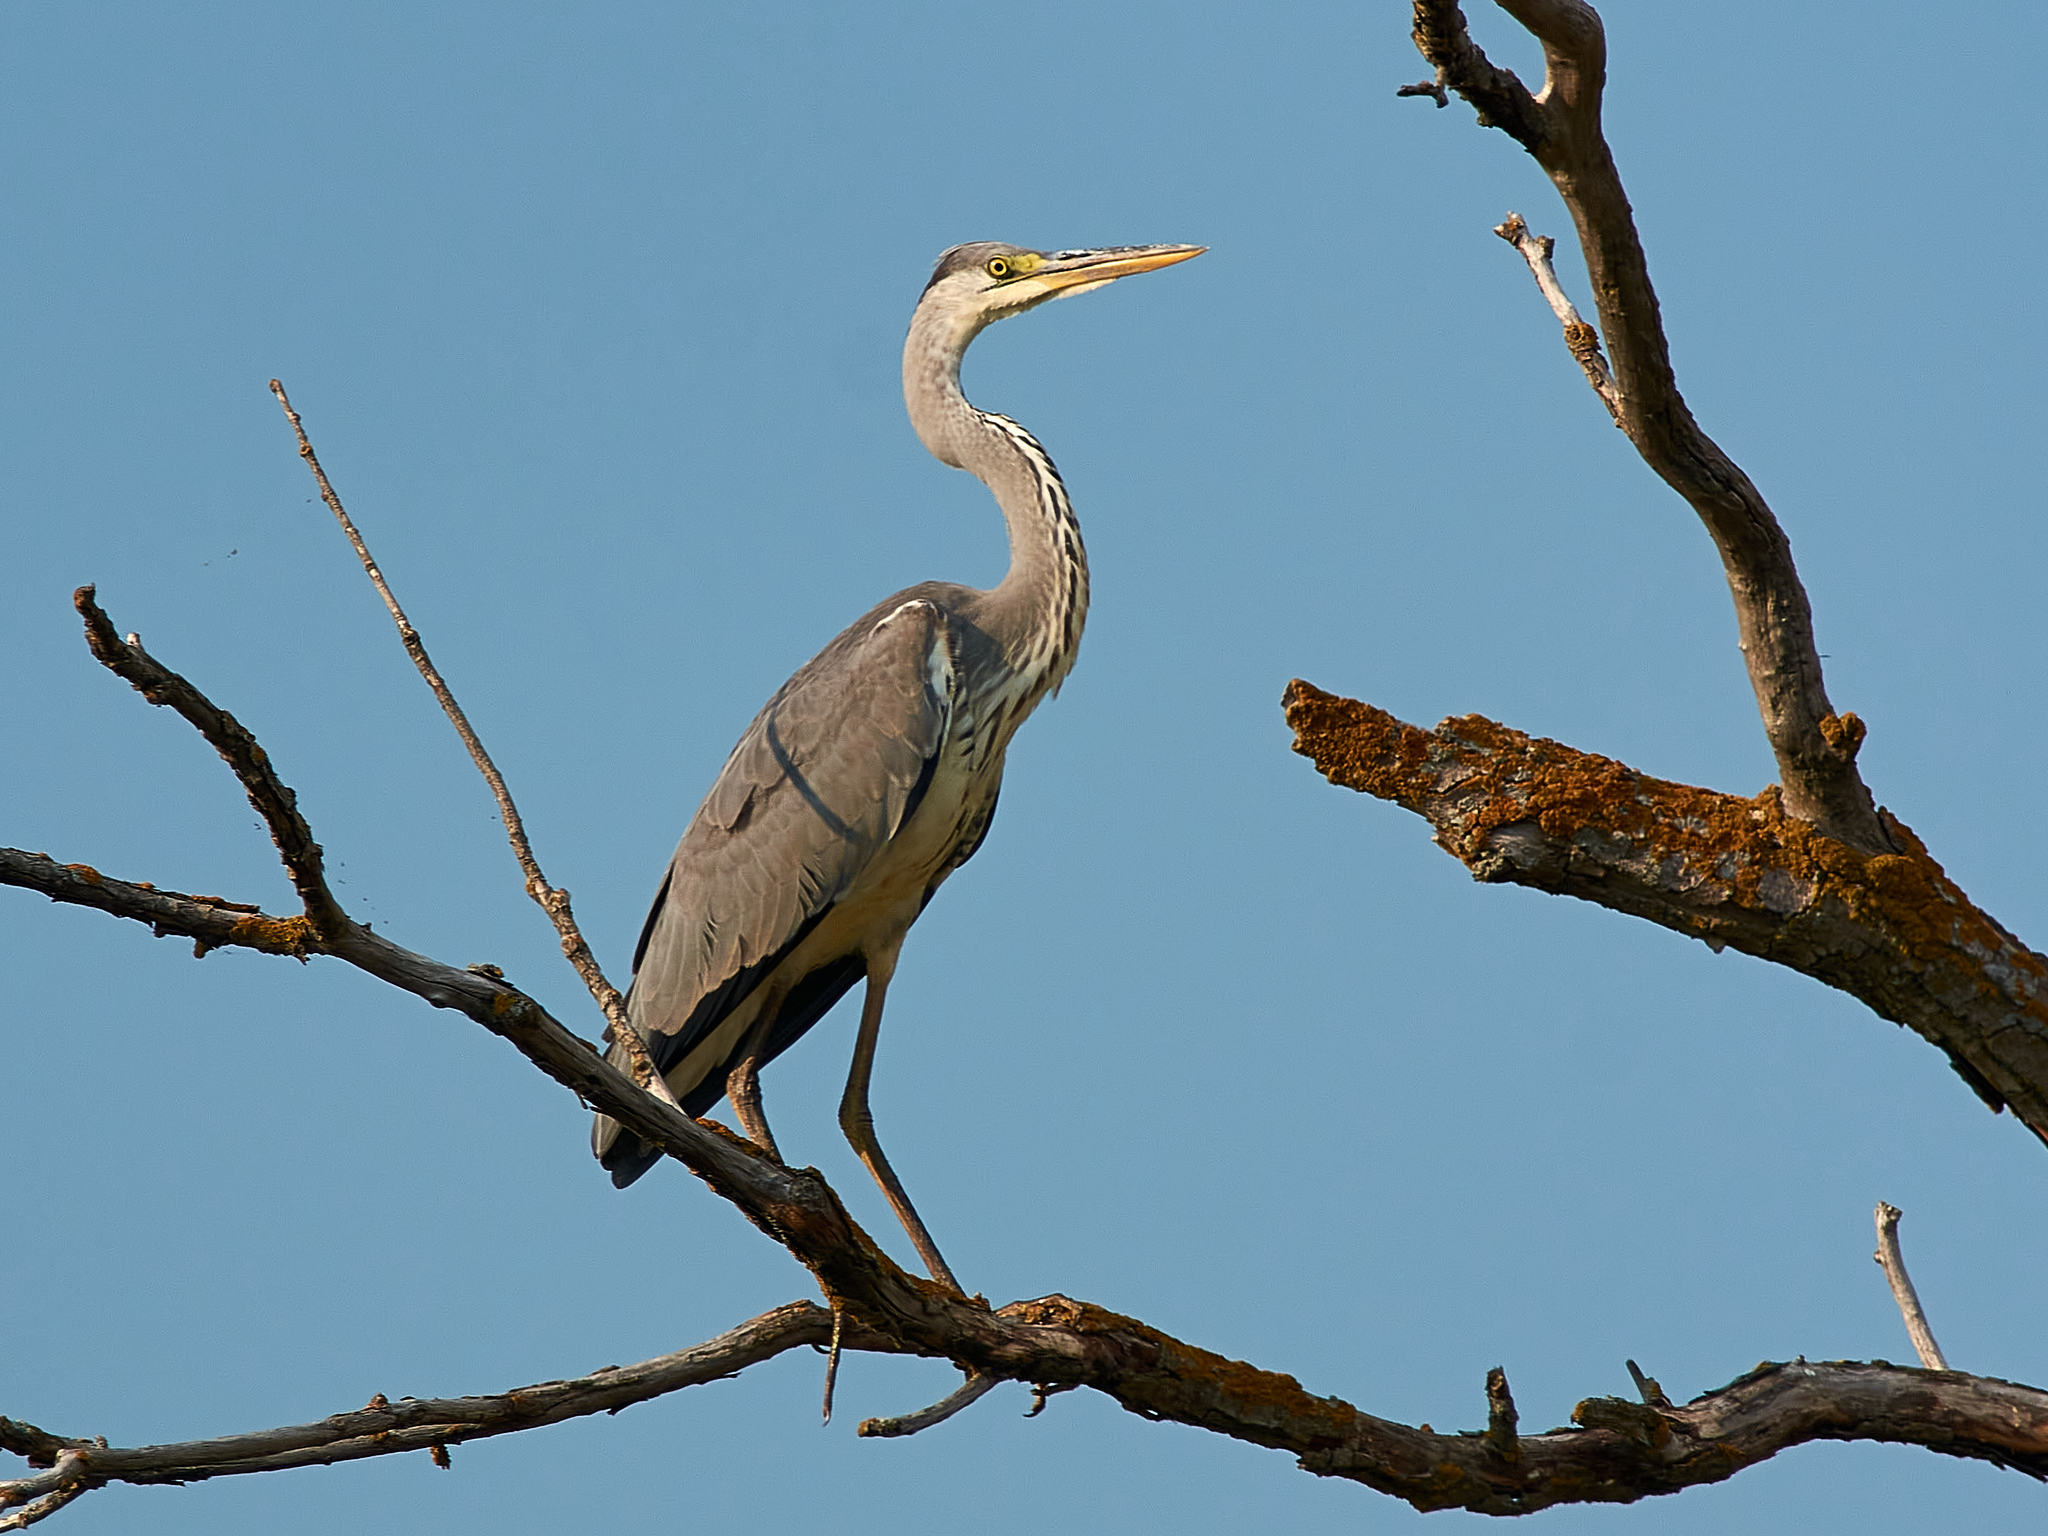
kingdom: Animalia
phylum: Chordata
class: Aves
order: Pelecaniformes
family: Ardeidae
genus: Ardea
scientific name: Ardea cinerea
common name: Grey heron
